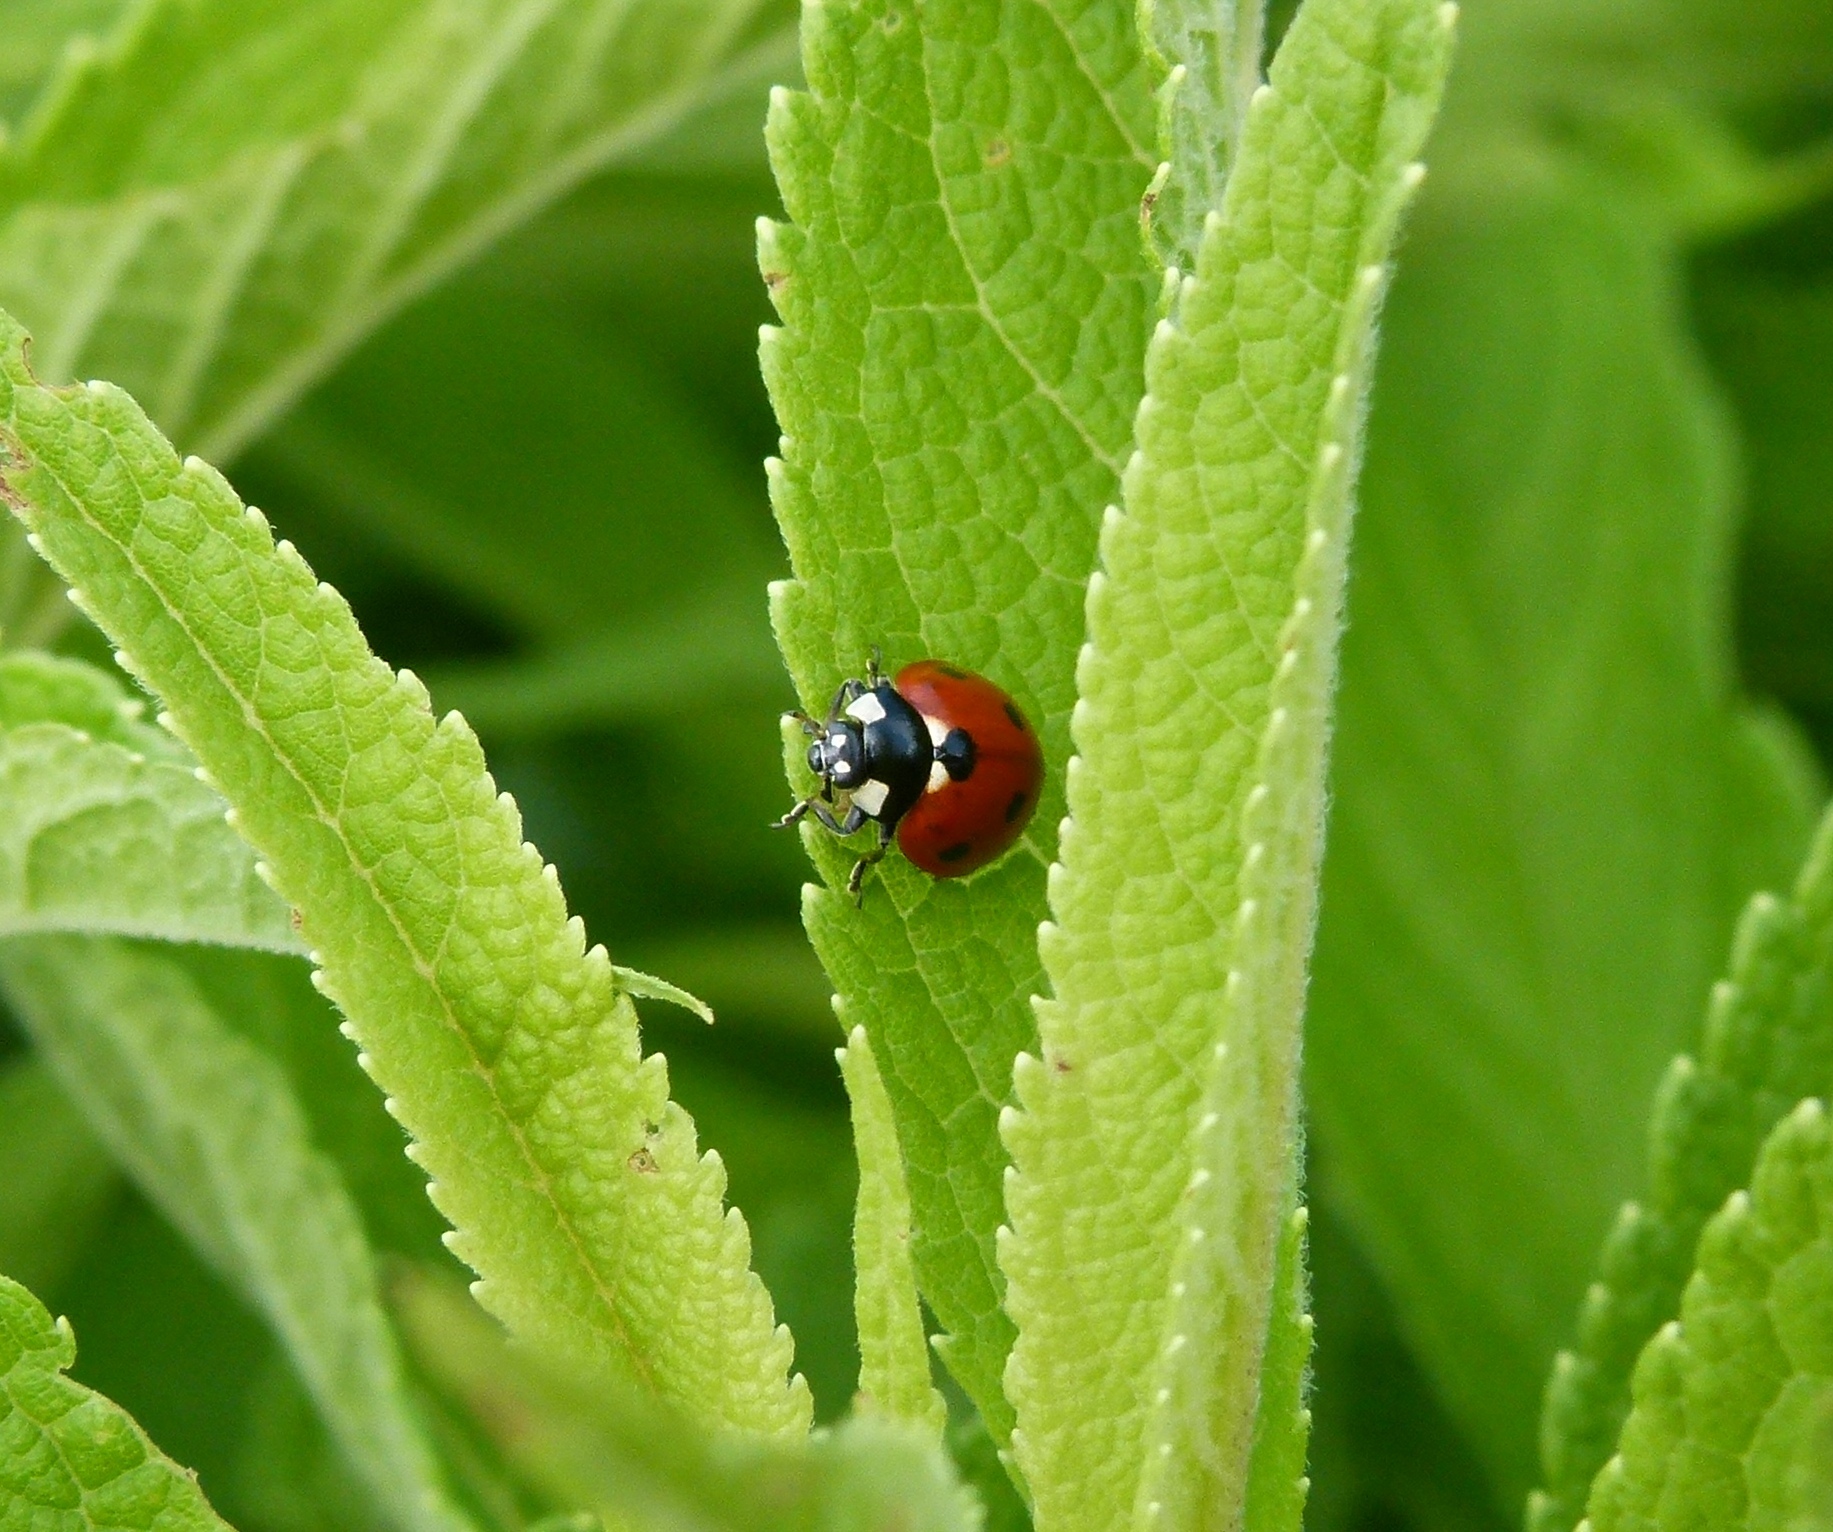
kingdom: Animalia
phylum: Arthropoda
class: Insecta
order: Coleoptera
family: Coccinellidae
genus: Coccinella
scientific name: Coccinella septempunctata
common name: Sevenspotted lady beetle
